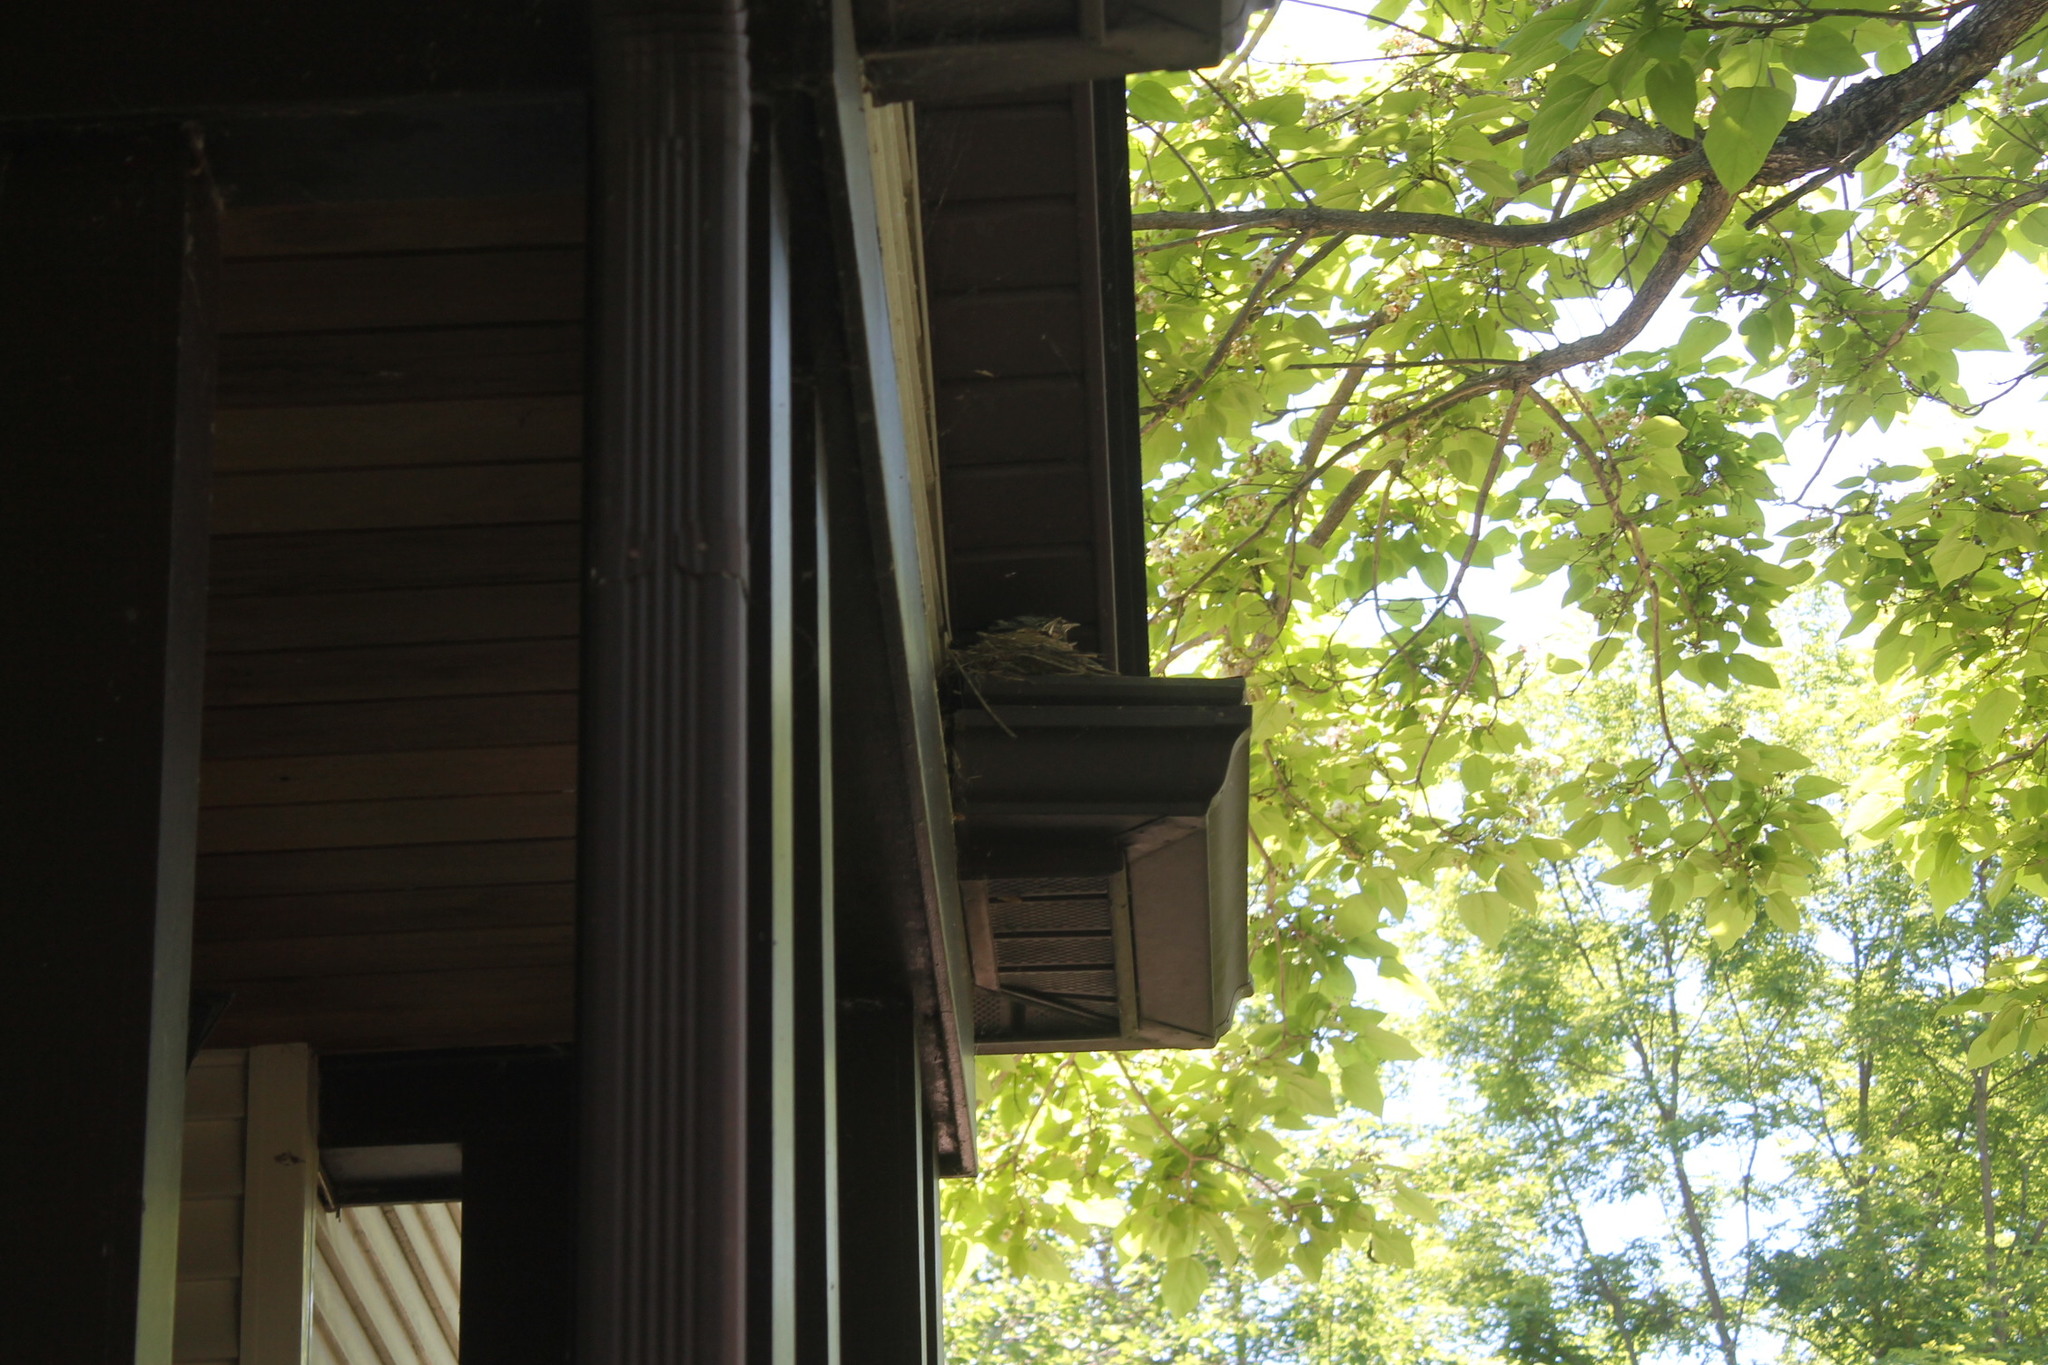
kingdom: Animalia
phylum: Chordata
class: Aves
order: Passeriformes
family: Turdidae
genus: Turdus
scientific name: Turdus migratorius
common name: American robin
